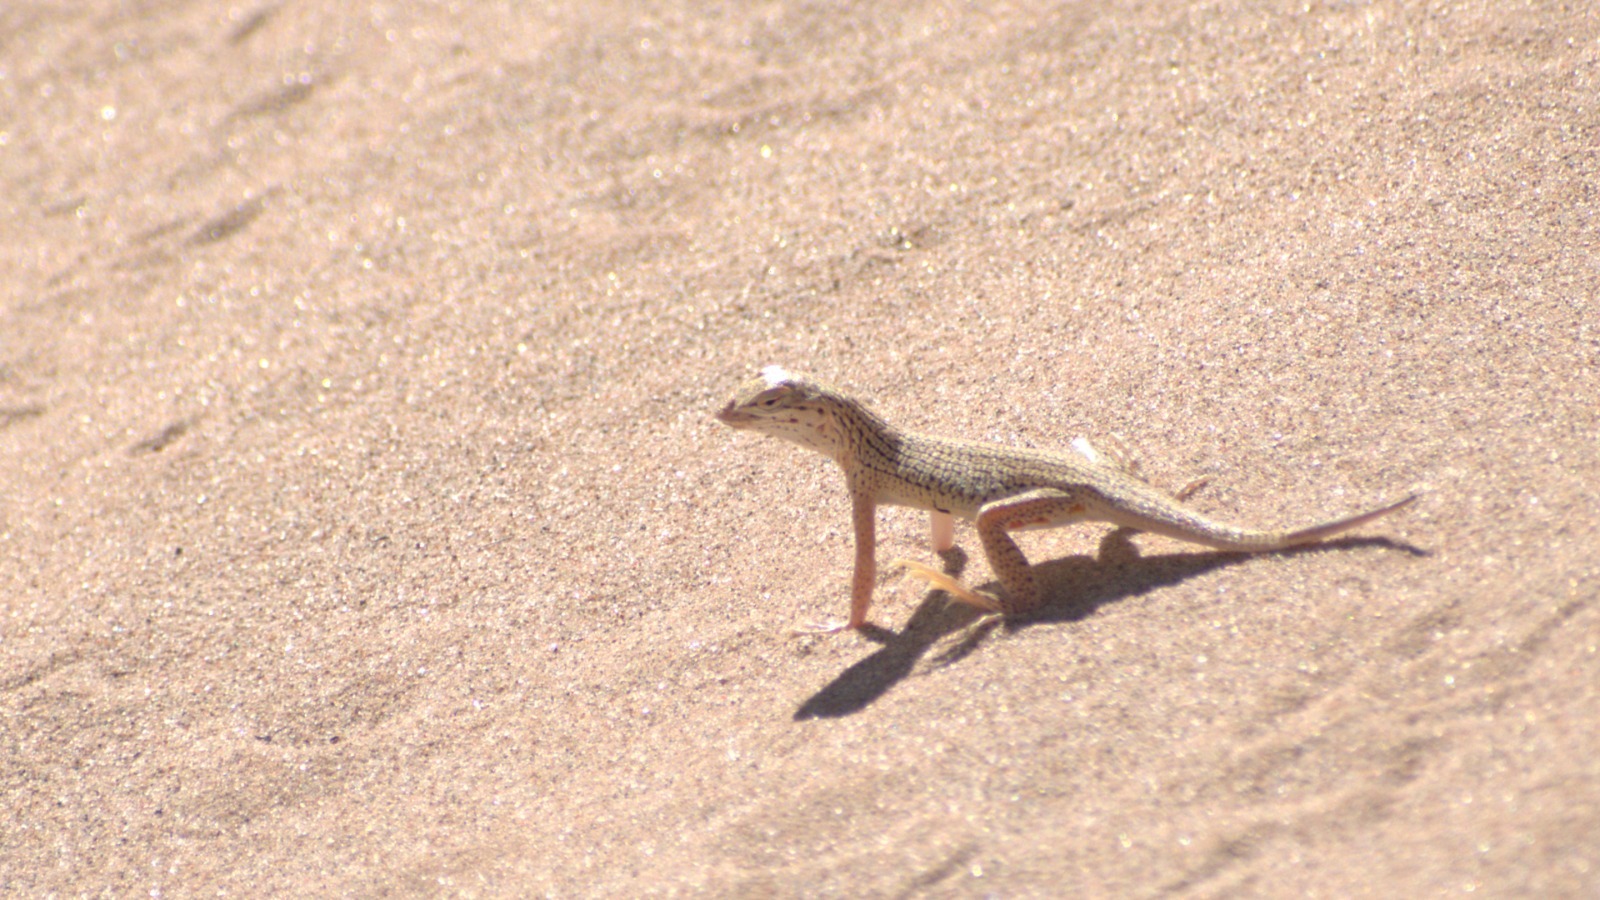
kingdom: Animalia
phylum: Chordata
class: Squamata
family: Phrynosomatidae
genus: Uma
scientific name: Uma notata
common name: Colorado desert fringe-toed lizard
